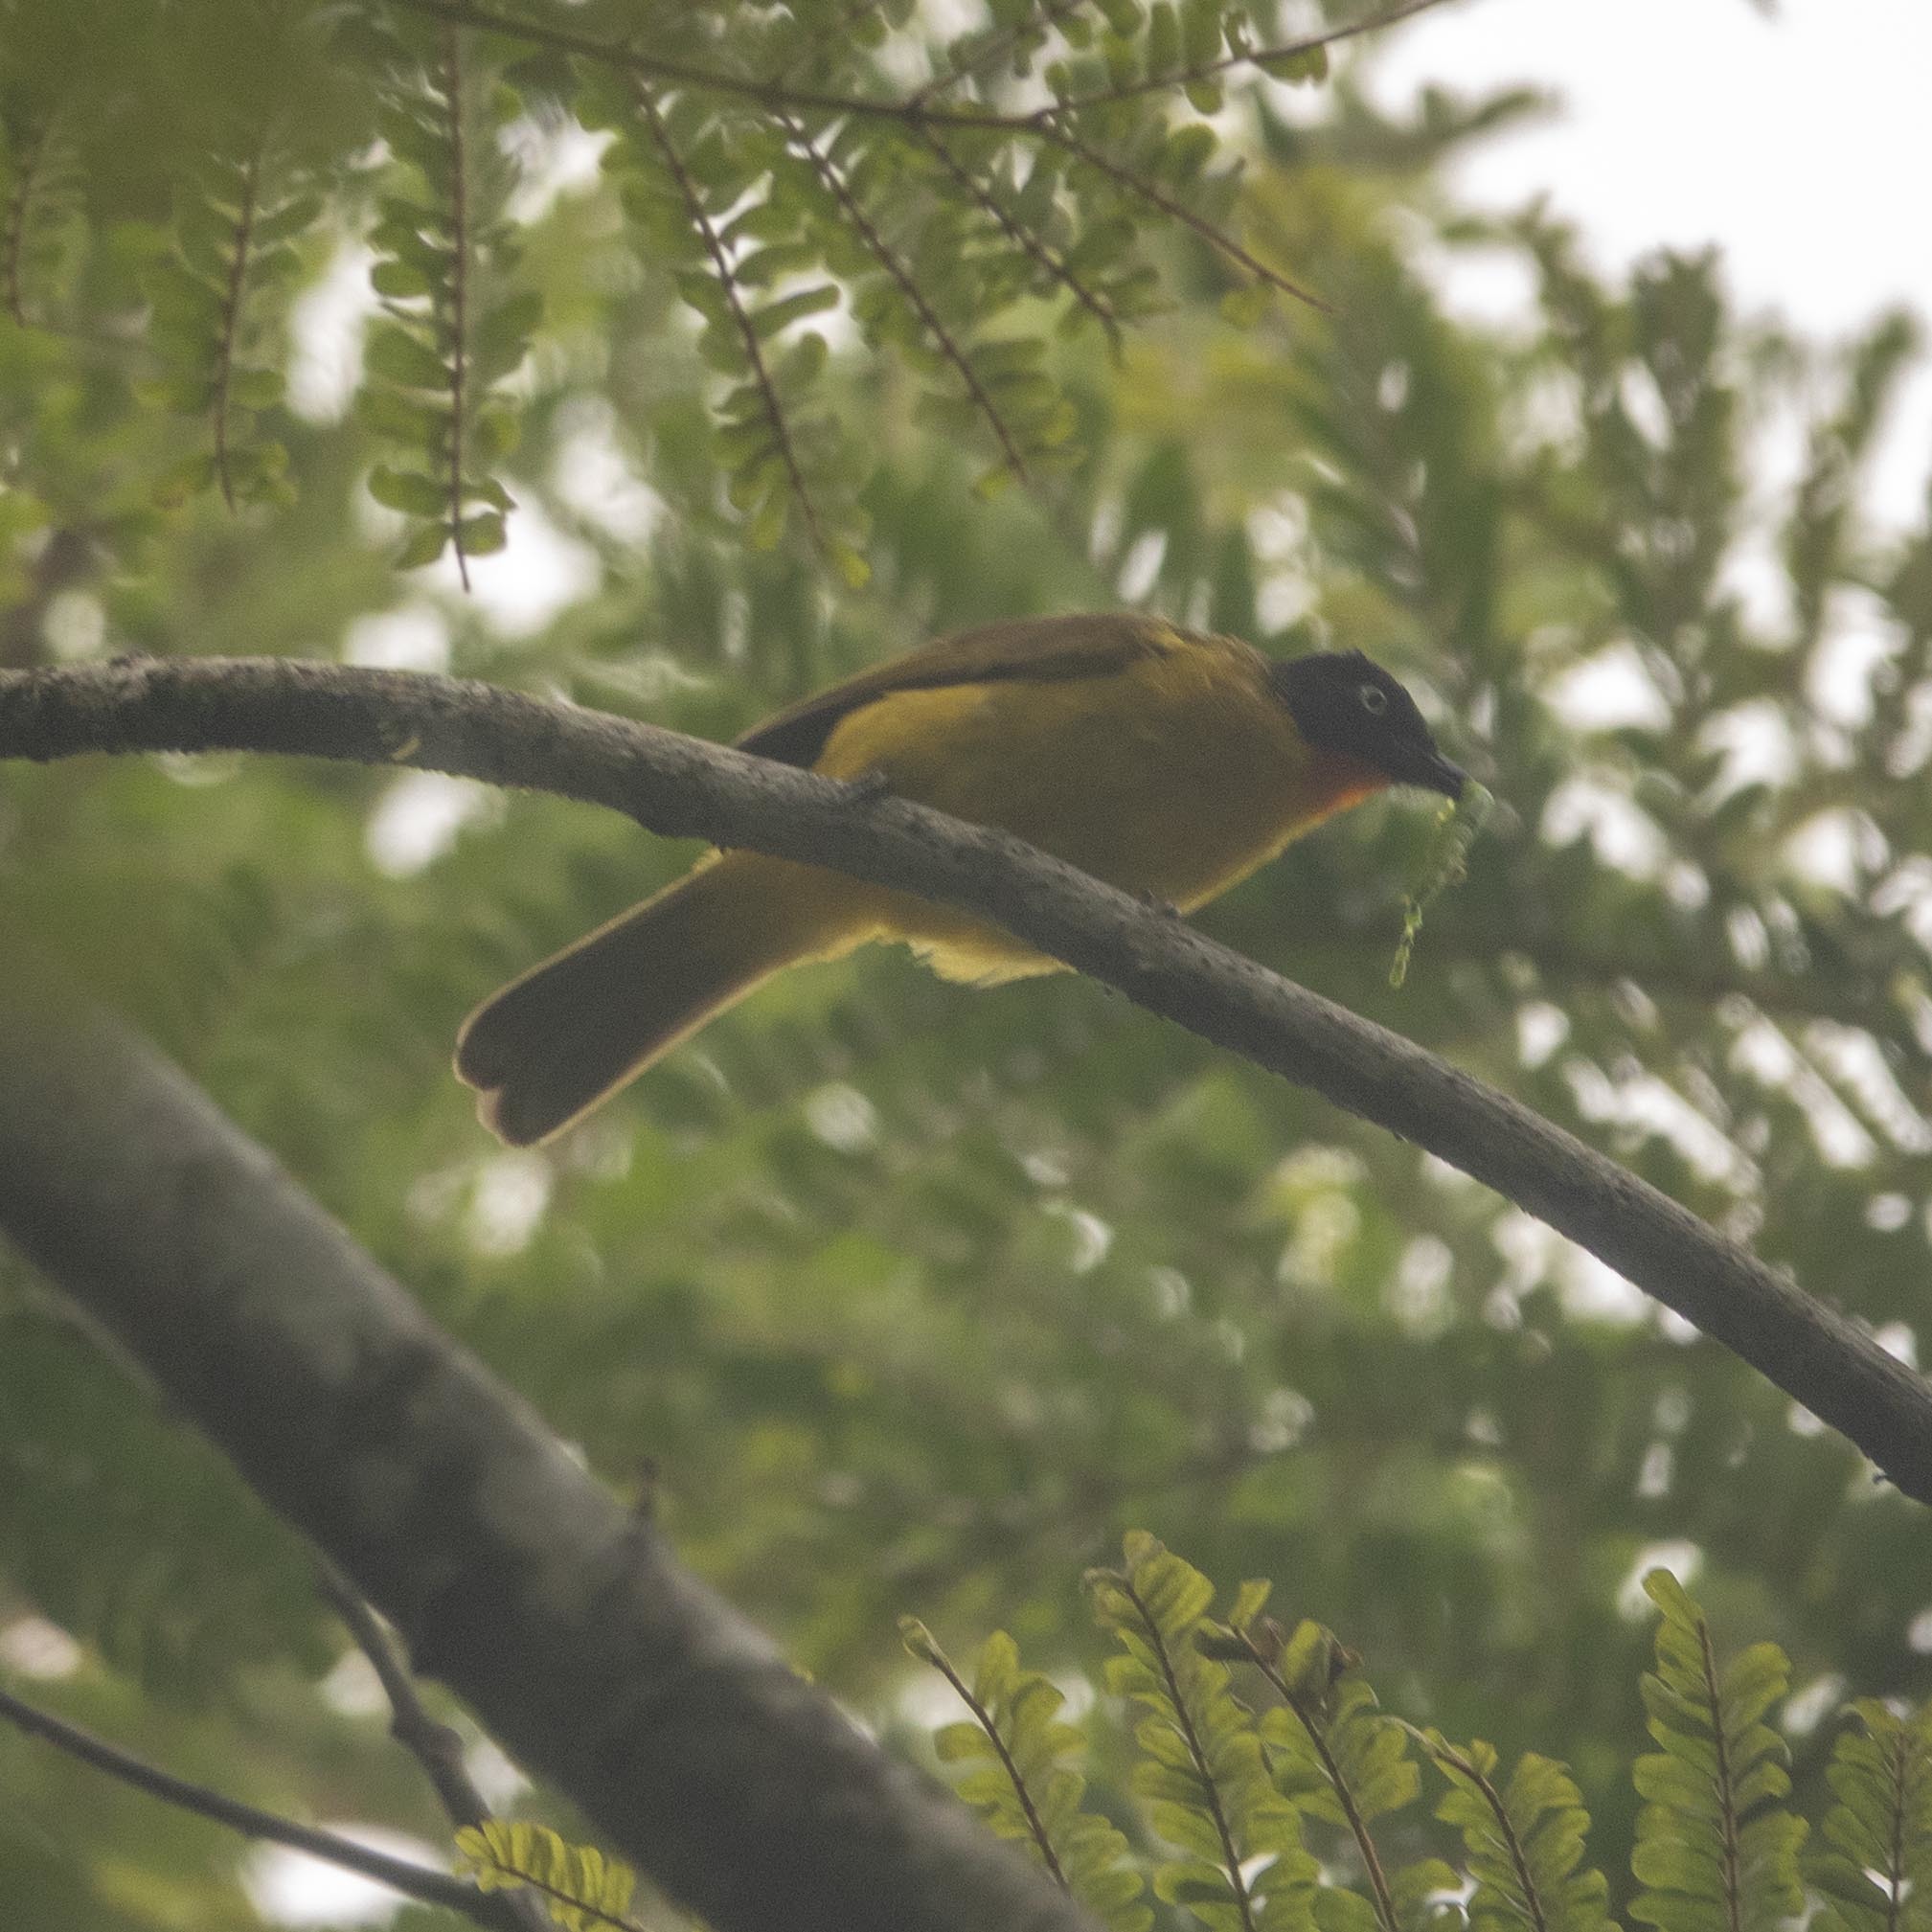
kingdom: Animalia
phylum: Chordata
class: Aves
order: Passeriformes
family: Pycnonotidae
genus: Pycnonotus
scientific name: Pycnonotus gularis
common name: Flame-throated bulbul
